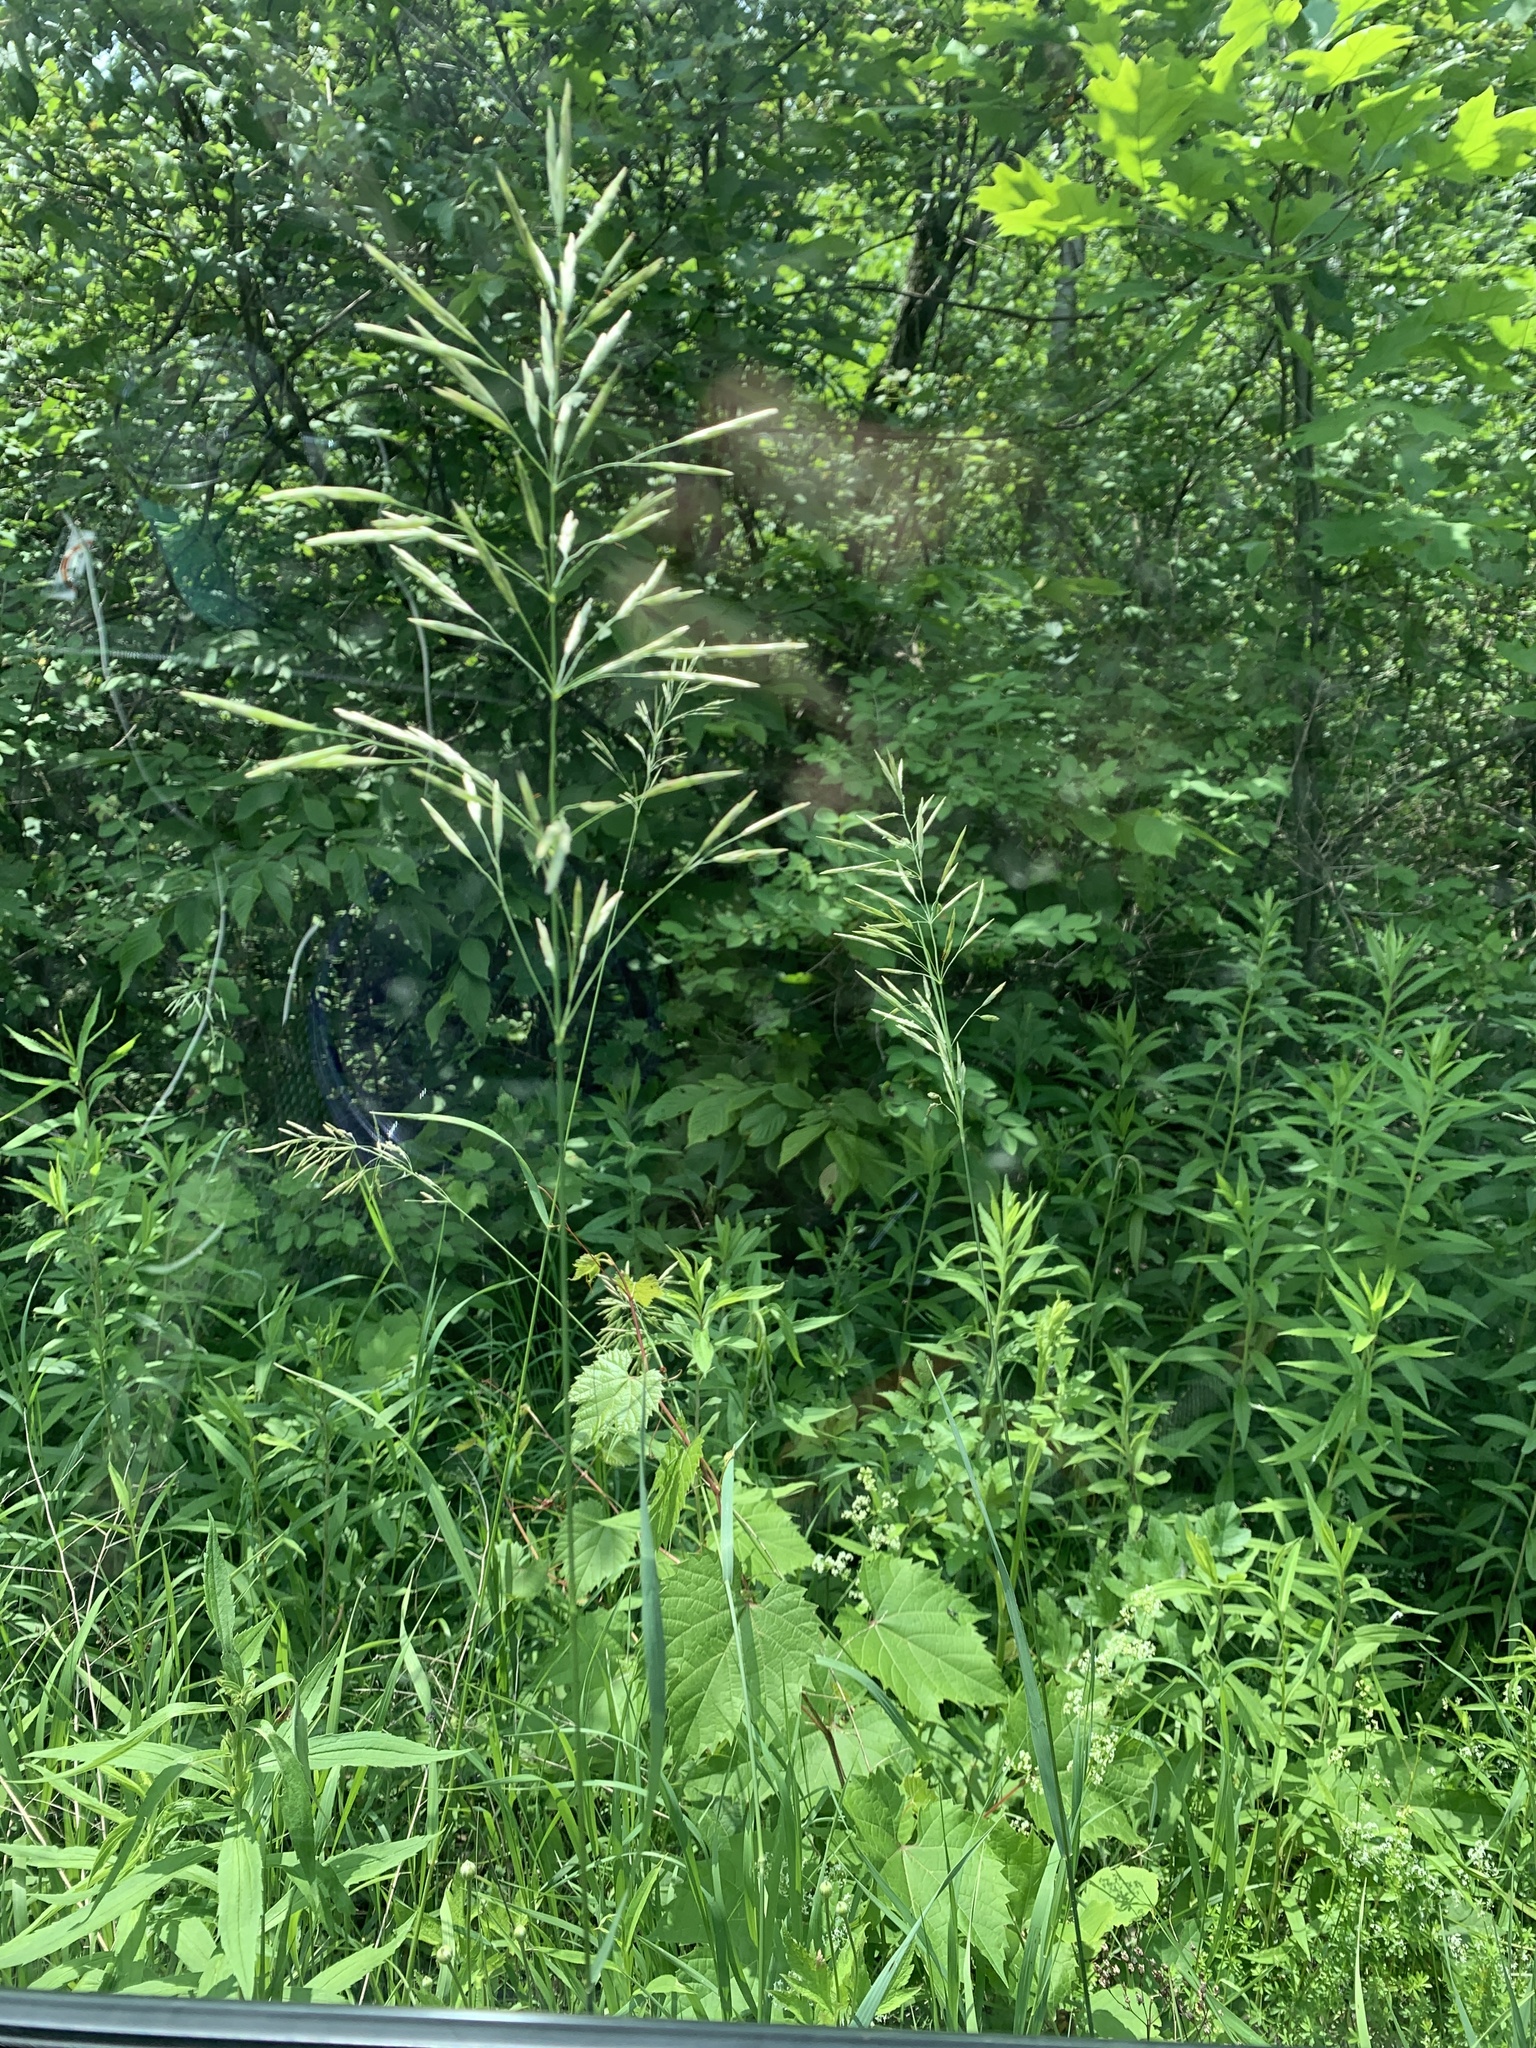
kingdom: Plantae
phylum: Tracheophyta
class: Liliopsida
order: Poales
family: Poaceae
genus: Bromus
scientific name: Bromus inermis
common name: Smooth brome
